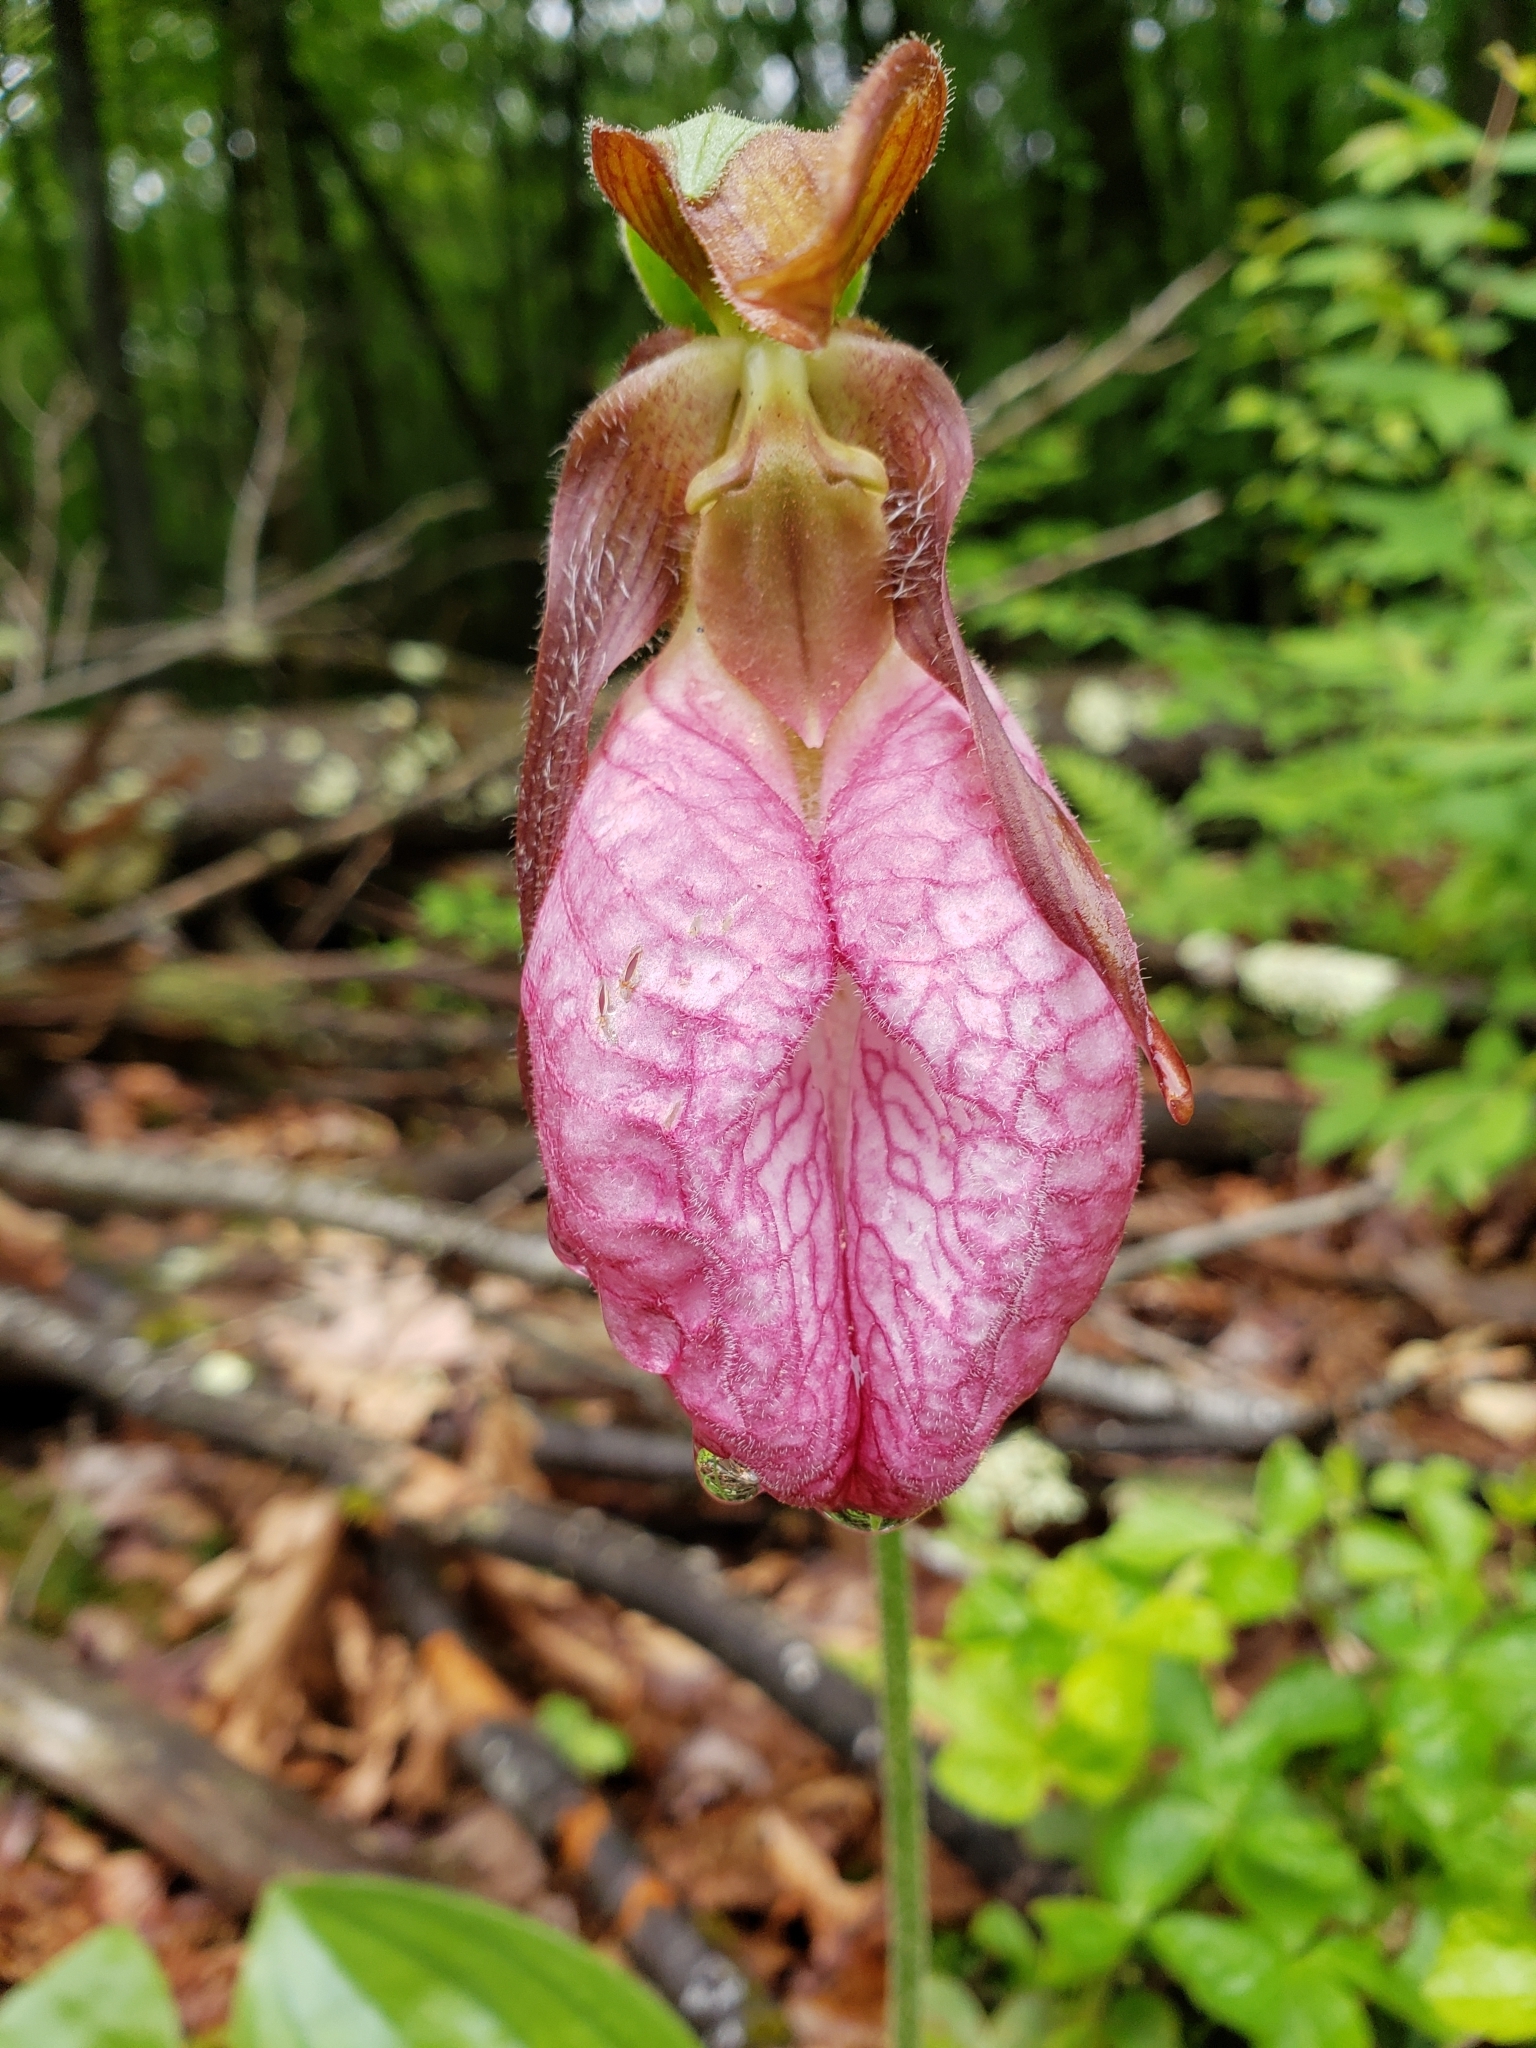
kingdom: Plantae
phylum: Tracheophyta
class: Liliopsida
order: Asparagales
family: Orchidaceae
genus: Cypripedium
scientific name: Cypripedium acaule
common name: Pink lady's-slipper
